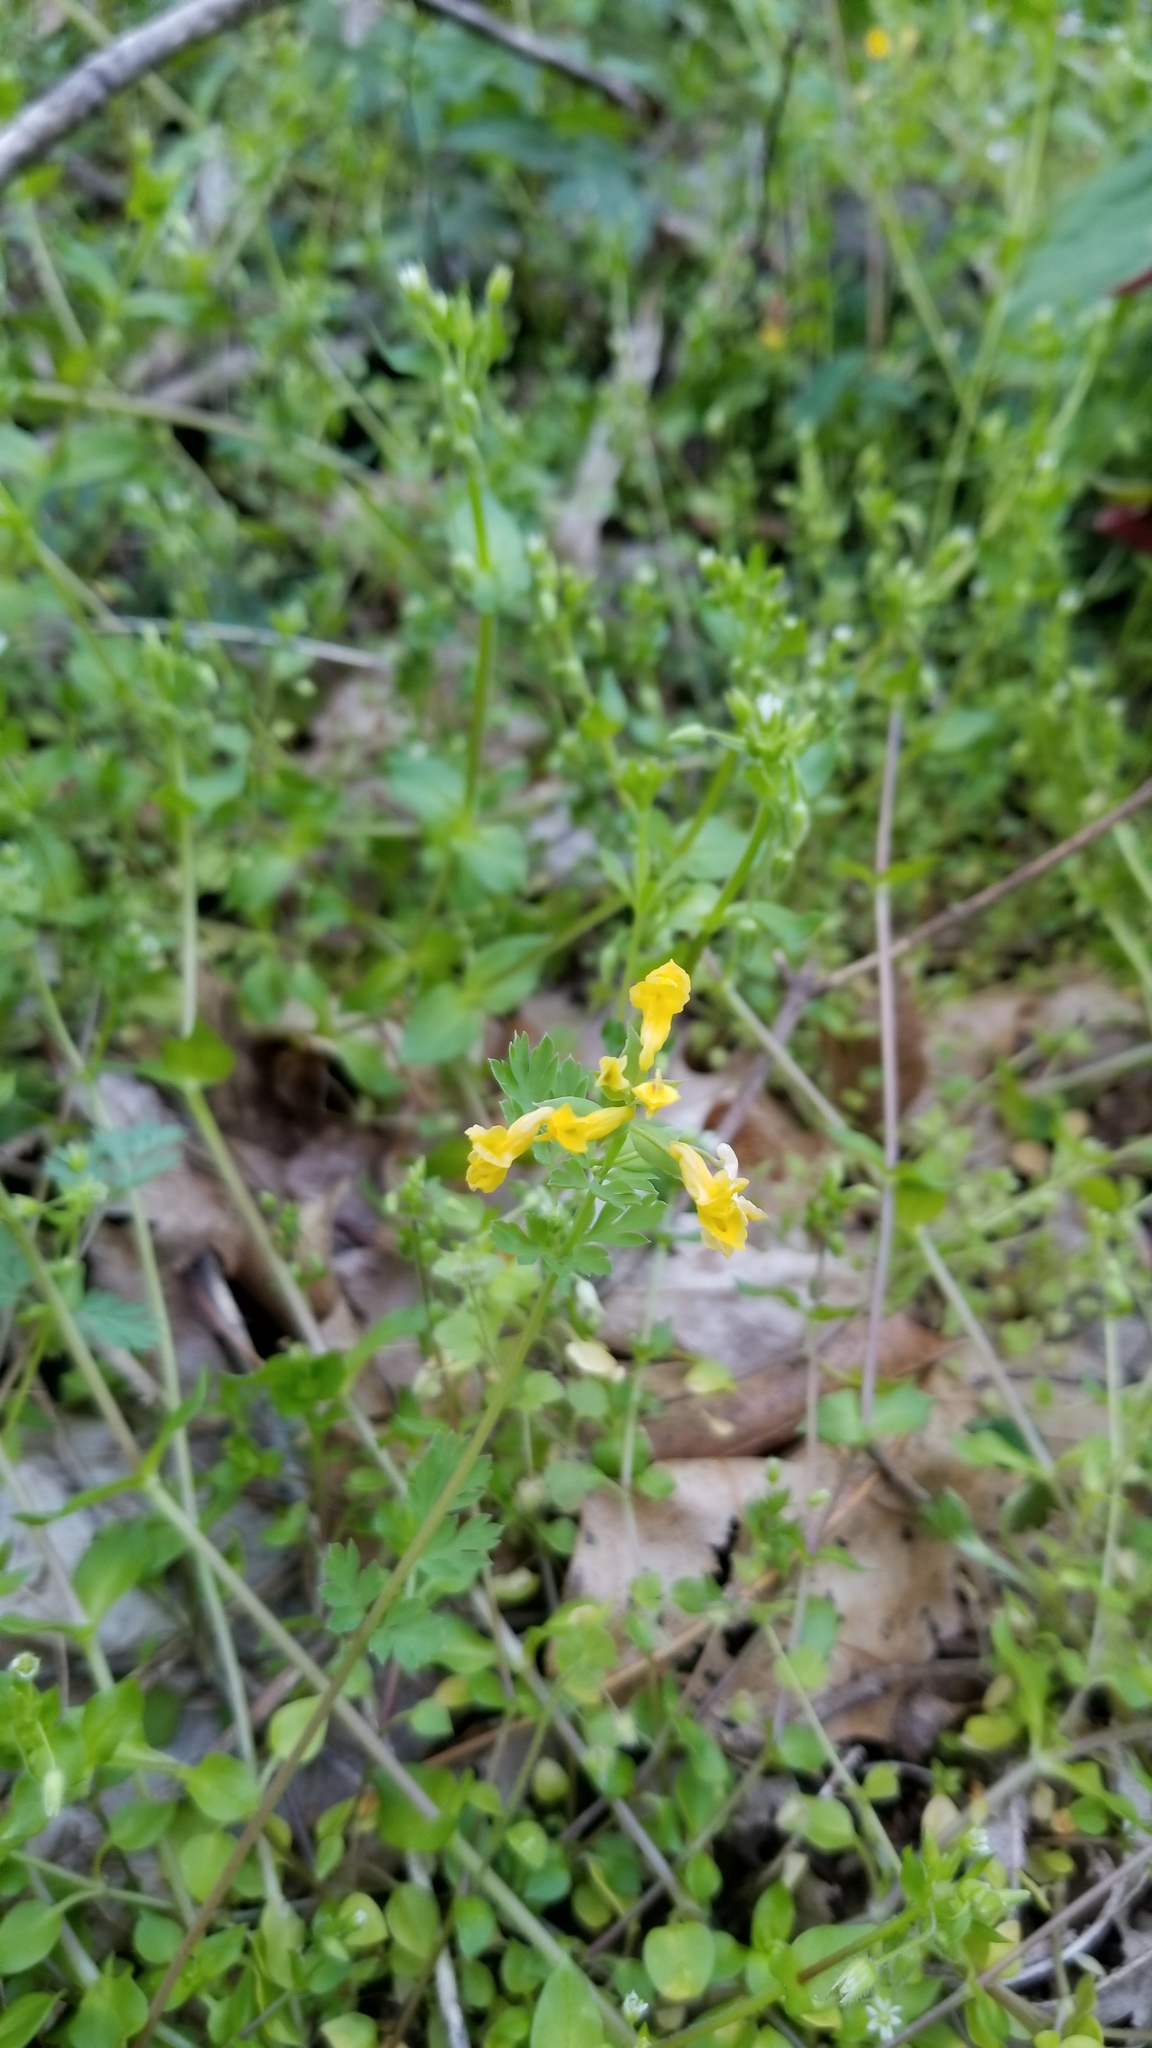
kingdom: Plantae
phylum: Tracheophyta
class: Magnoliopsida
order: Ranunculales
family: Papaveraceae
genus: Corydalis
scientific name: Corydalis flavula
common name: Yellow corydalis
